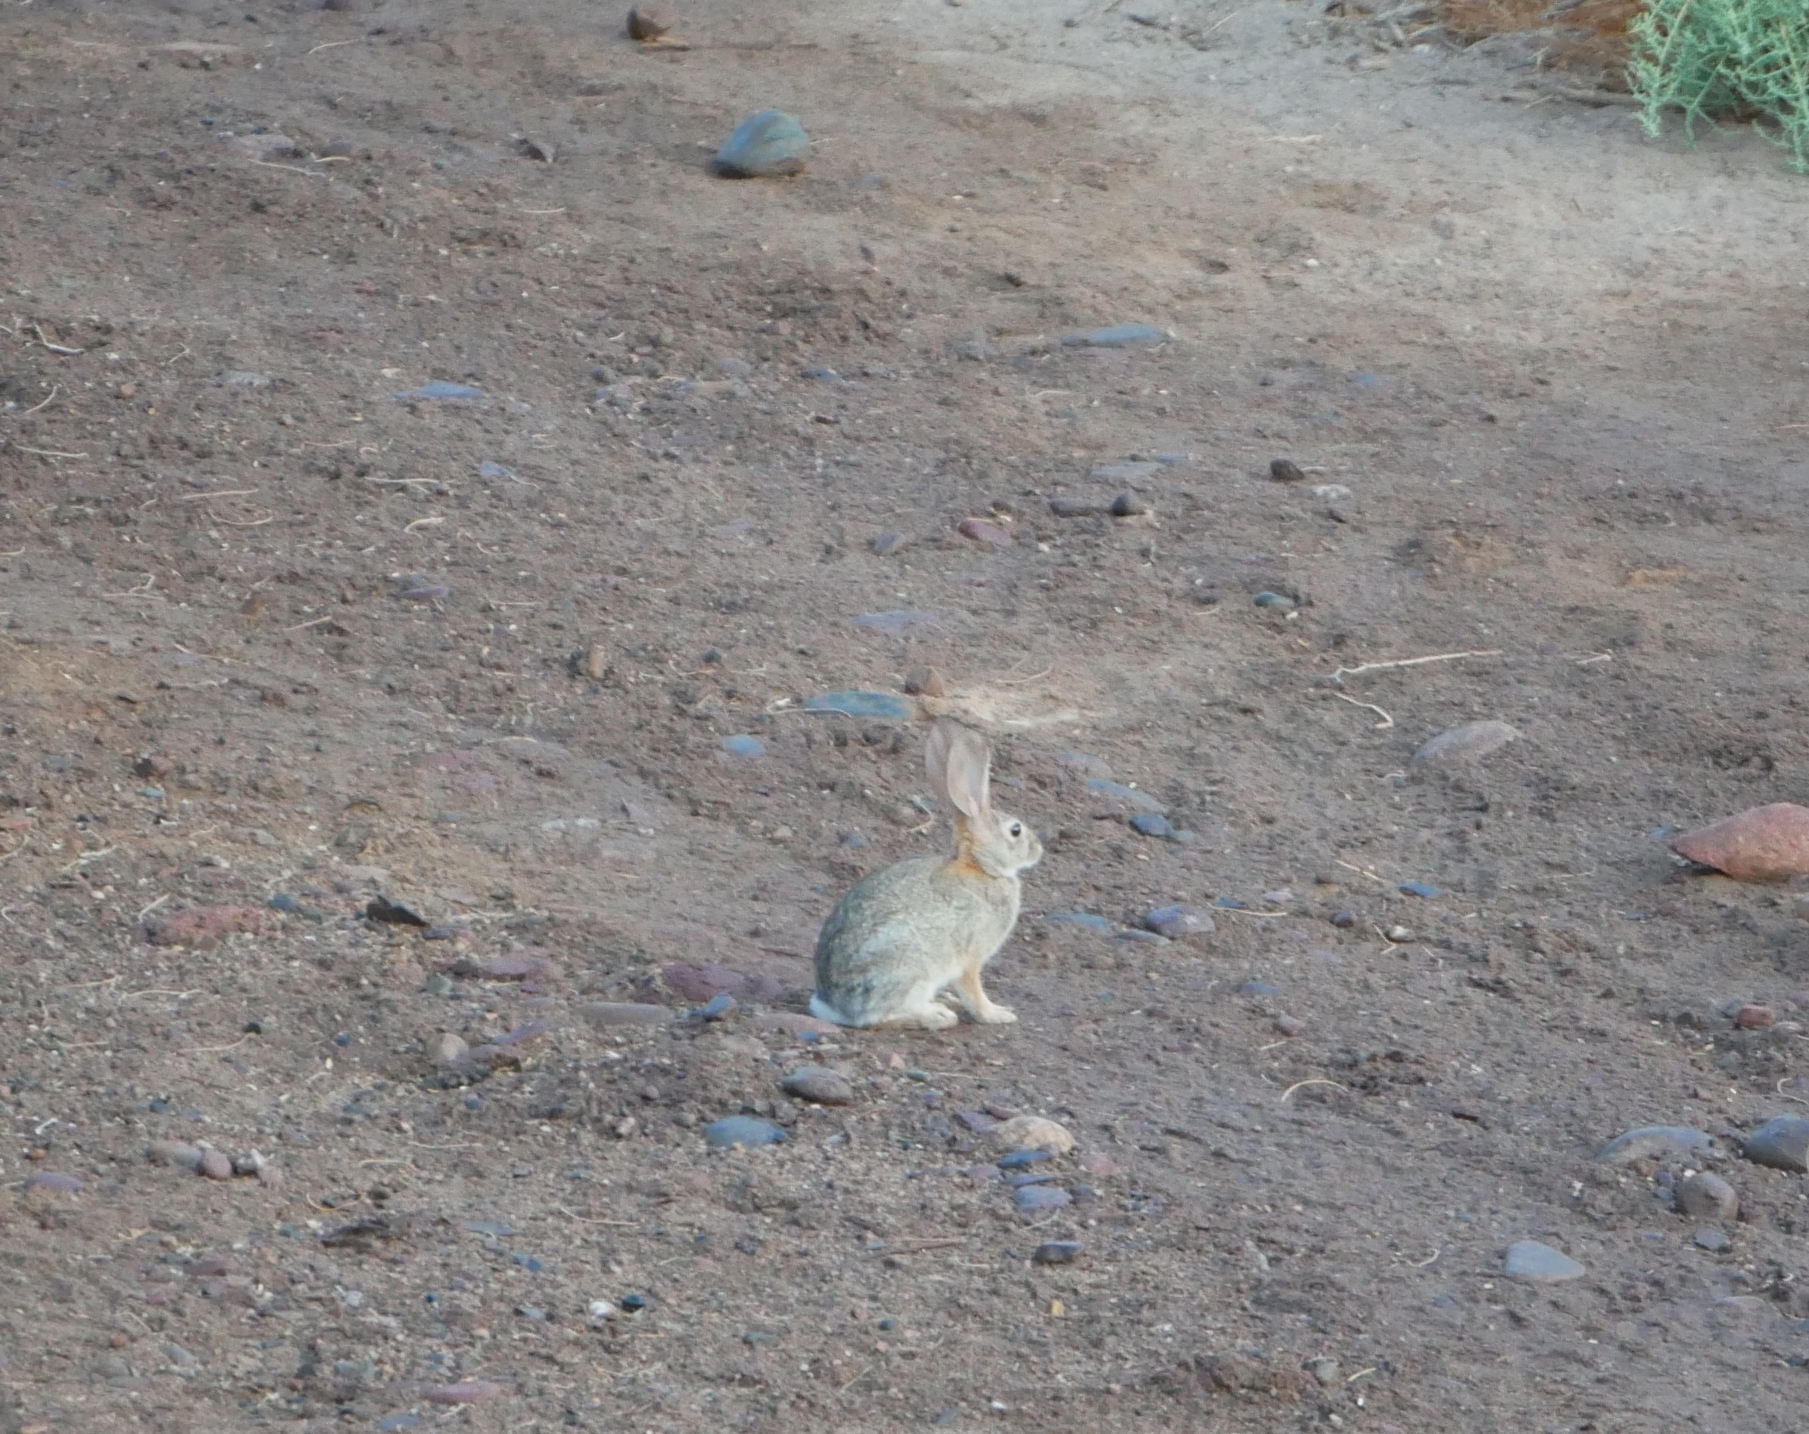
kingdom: Animalia
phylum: Chordata
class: Mammalia
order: Lagomorpha
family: Leporidae
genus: Sylvilagus
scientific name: Sylvilagus audubonii
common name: Desert cottontail
